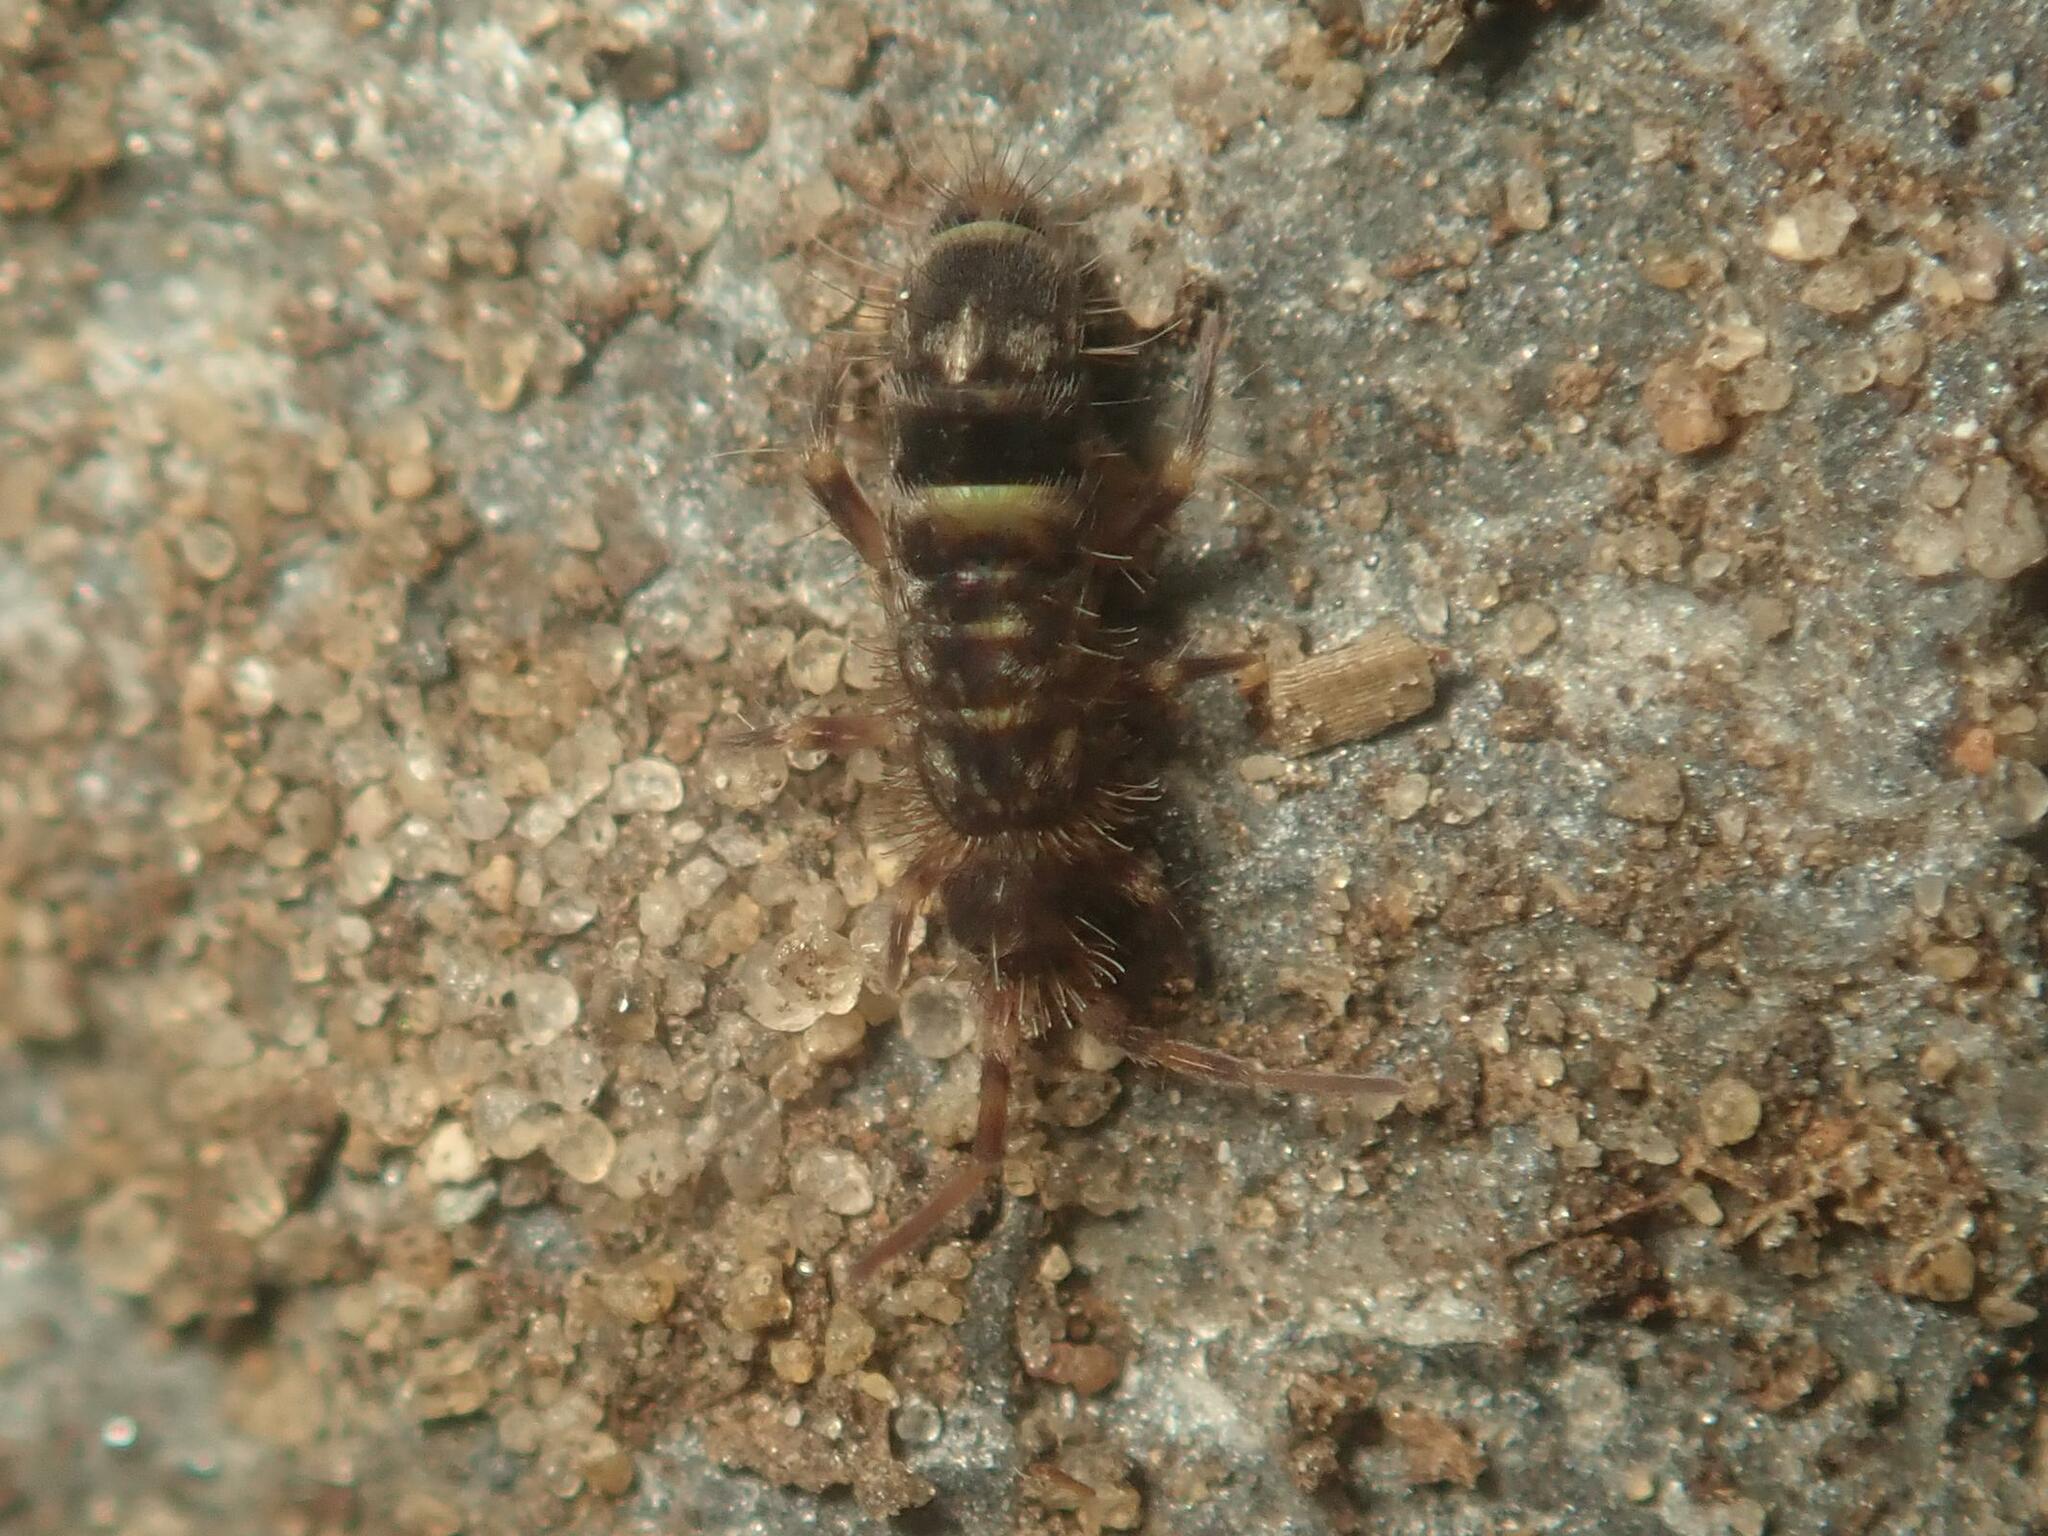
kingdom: Animalia
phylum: Arthropoda
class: Collembola
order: Entomobryomorpha
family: Orchesellidae
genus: Orchesella
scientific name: Orchesella cincta
